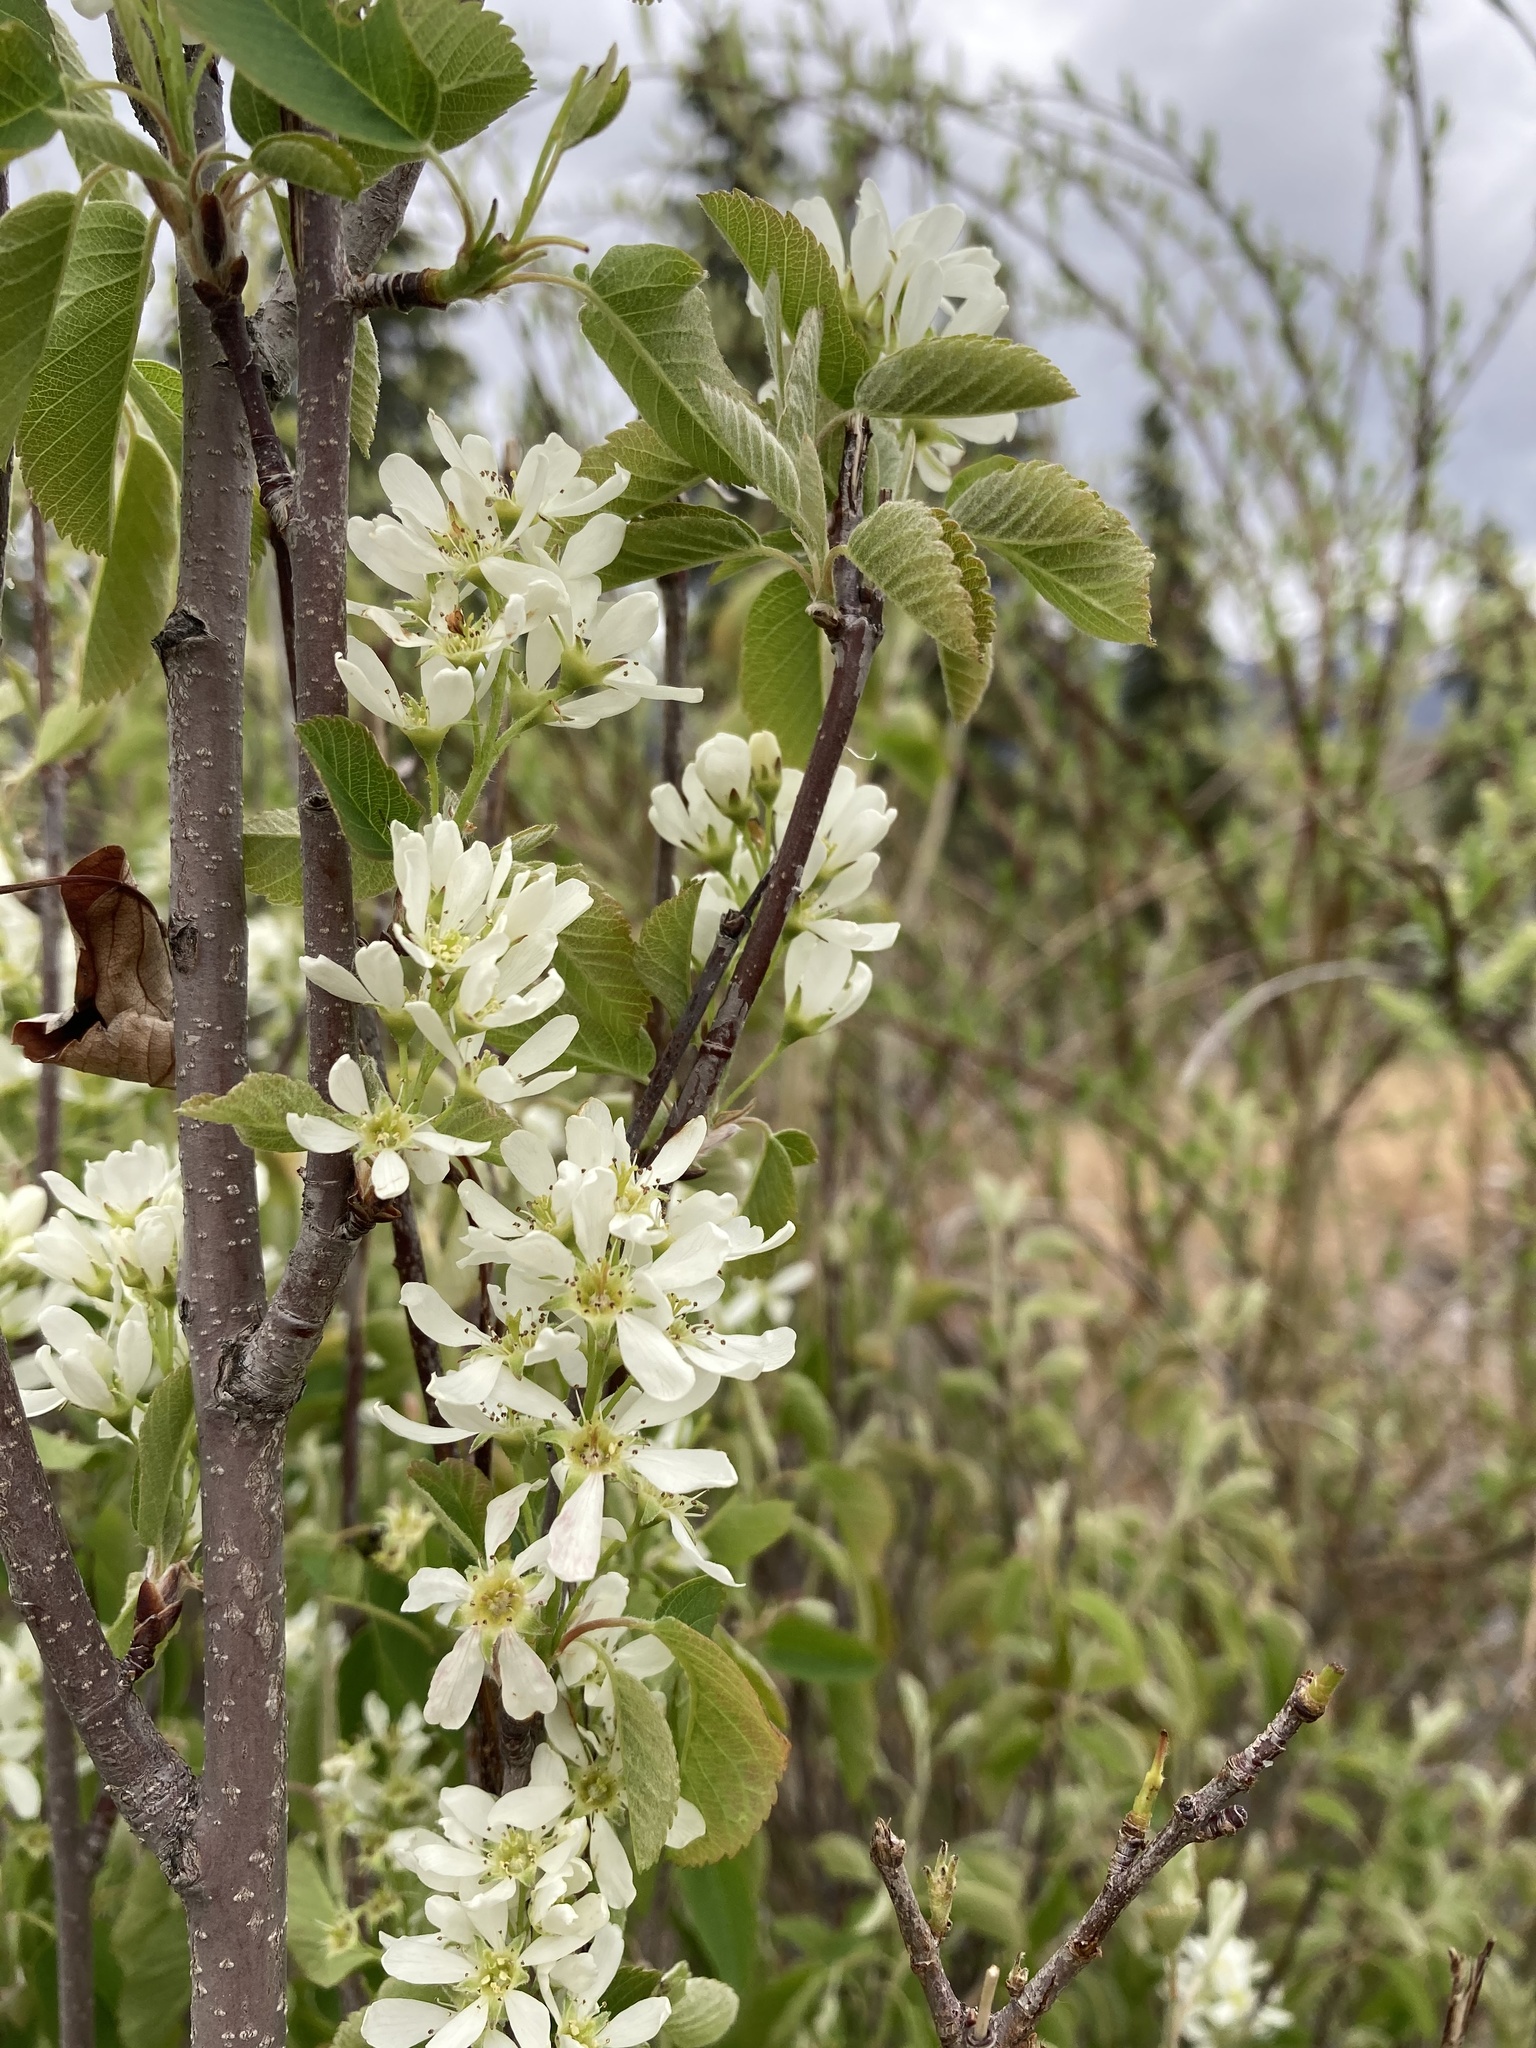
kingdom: Plantae
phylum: Tracheophyta
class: Magnoliopsida
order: Rosales
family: Rosaceae
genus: Amelanchier
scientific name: Amelanchier alnifolia
